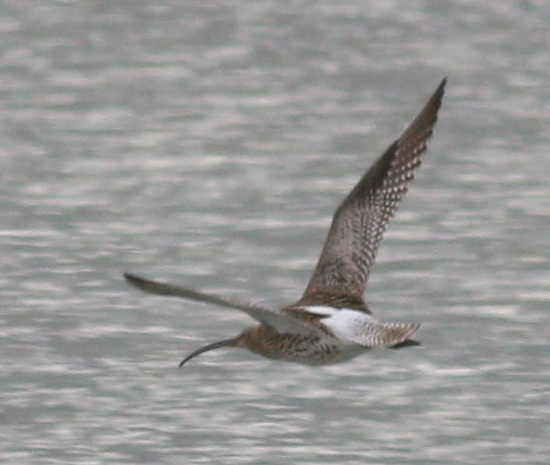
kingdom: Animalia
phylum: Chordata
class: Aves
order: Charadriiformes
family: Scolopacidae
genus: Numenius
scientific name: Numenius arquata
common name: Eurasian curlew
